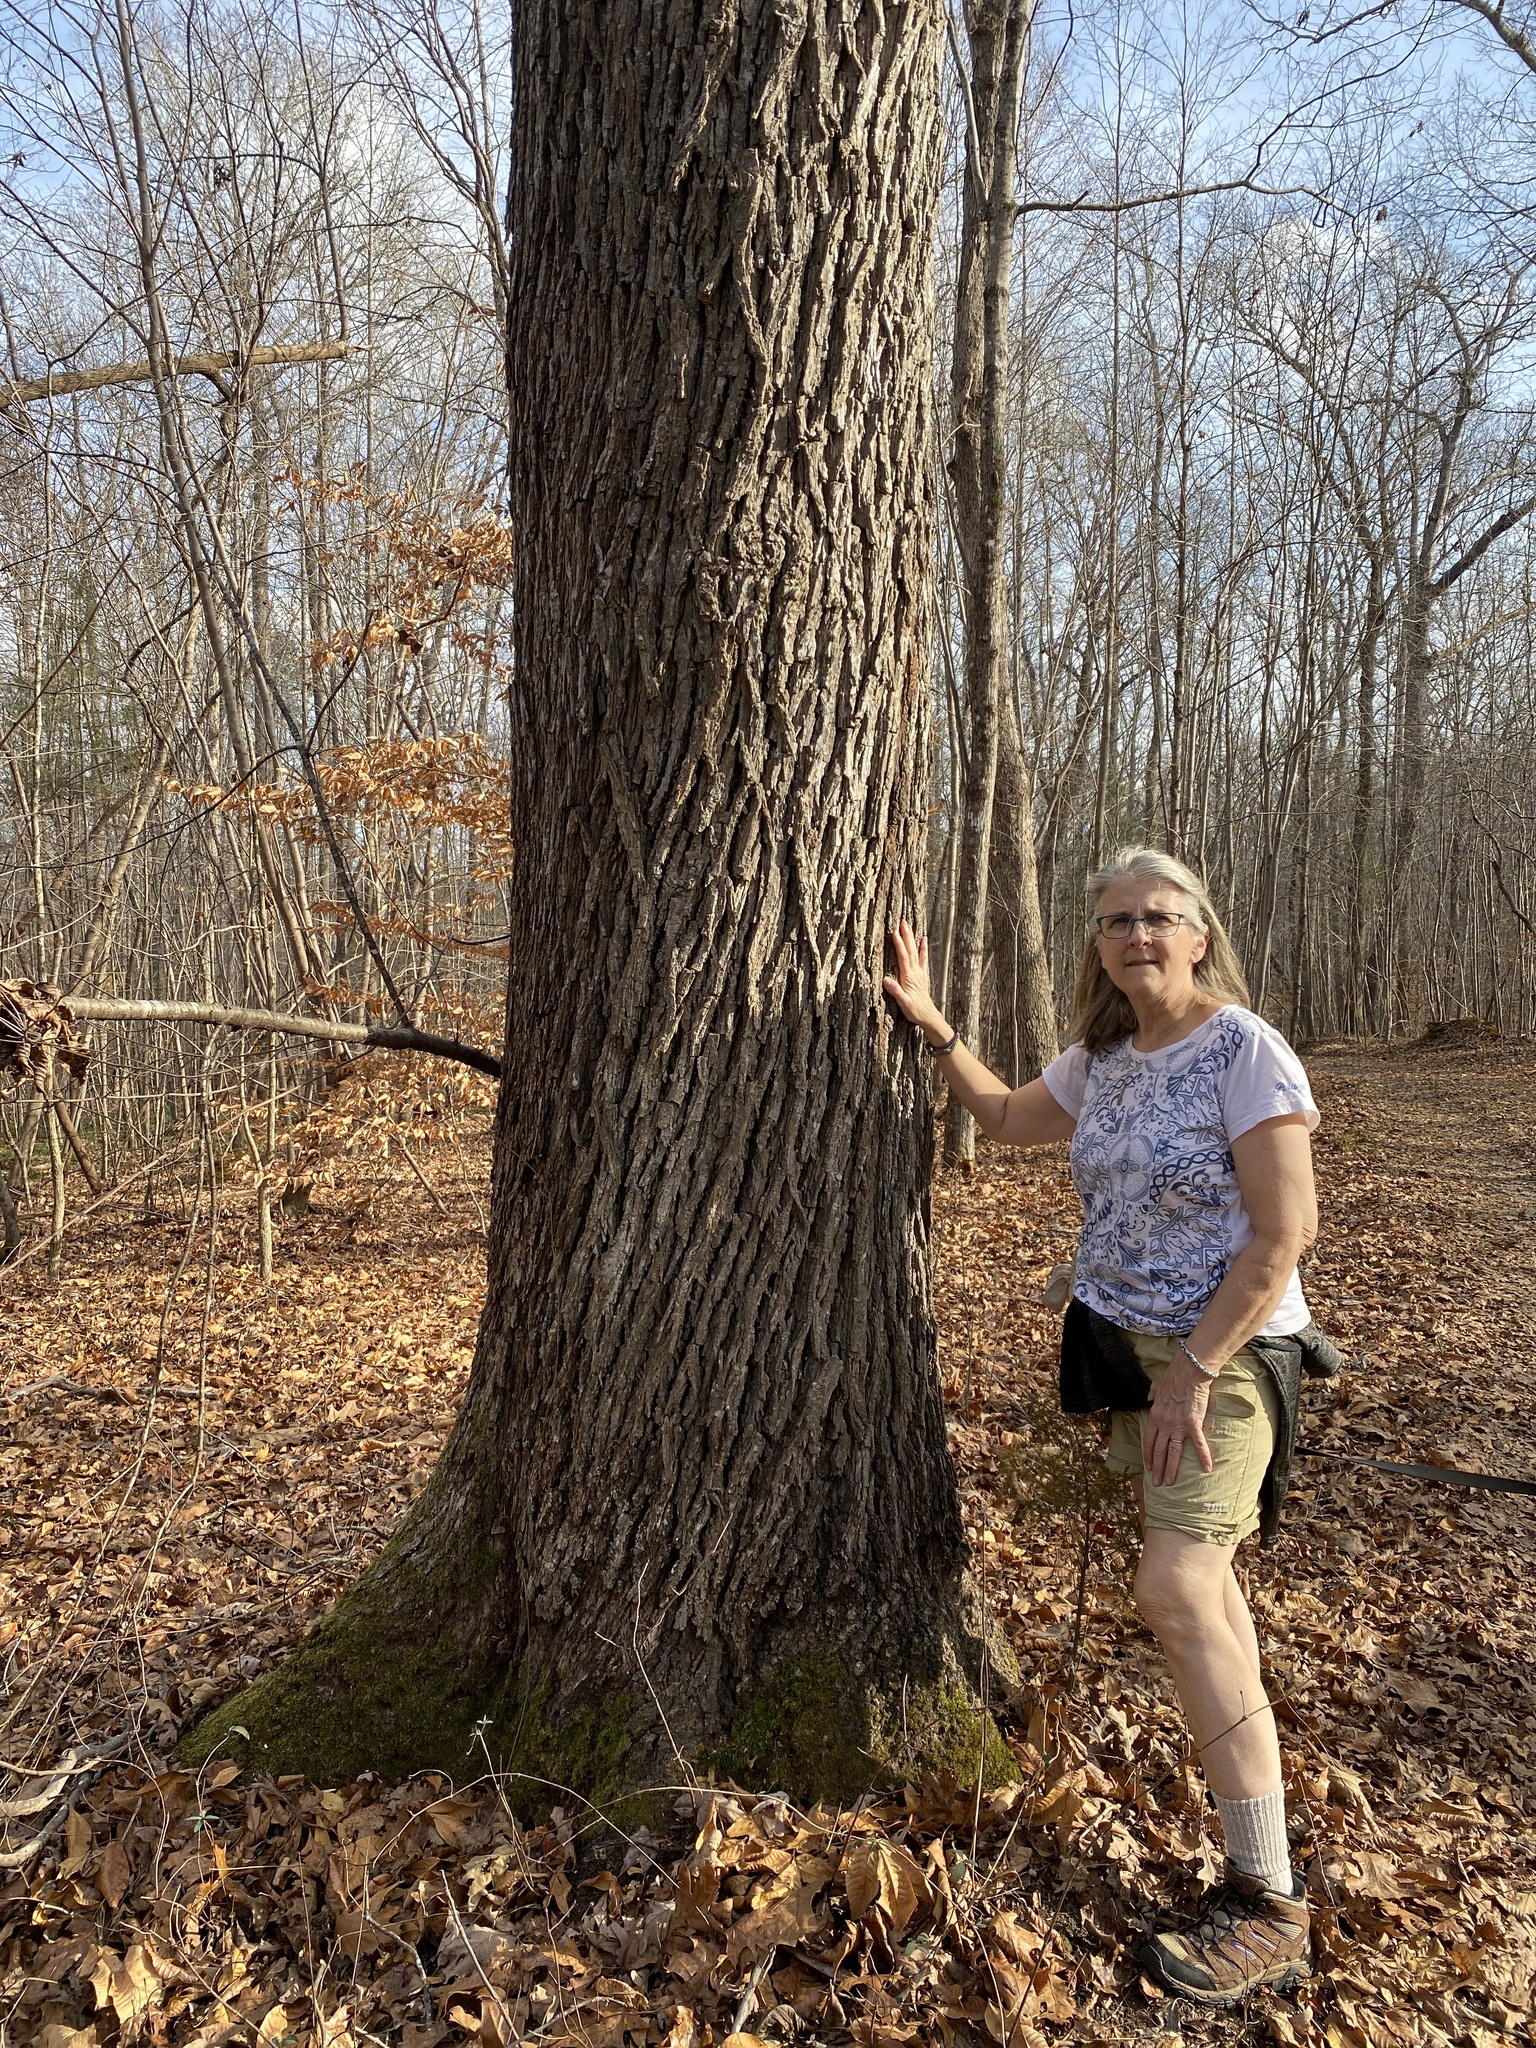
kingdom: Plantae
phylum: Tracheophyta
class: Magnoliopsida
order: Fagales
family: Juglandaceae
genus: Carya
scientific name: Carya alba
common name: Mockernut hickory
